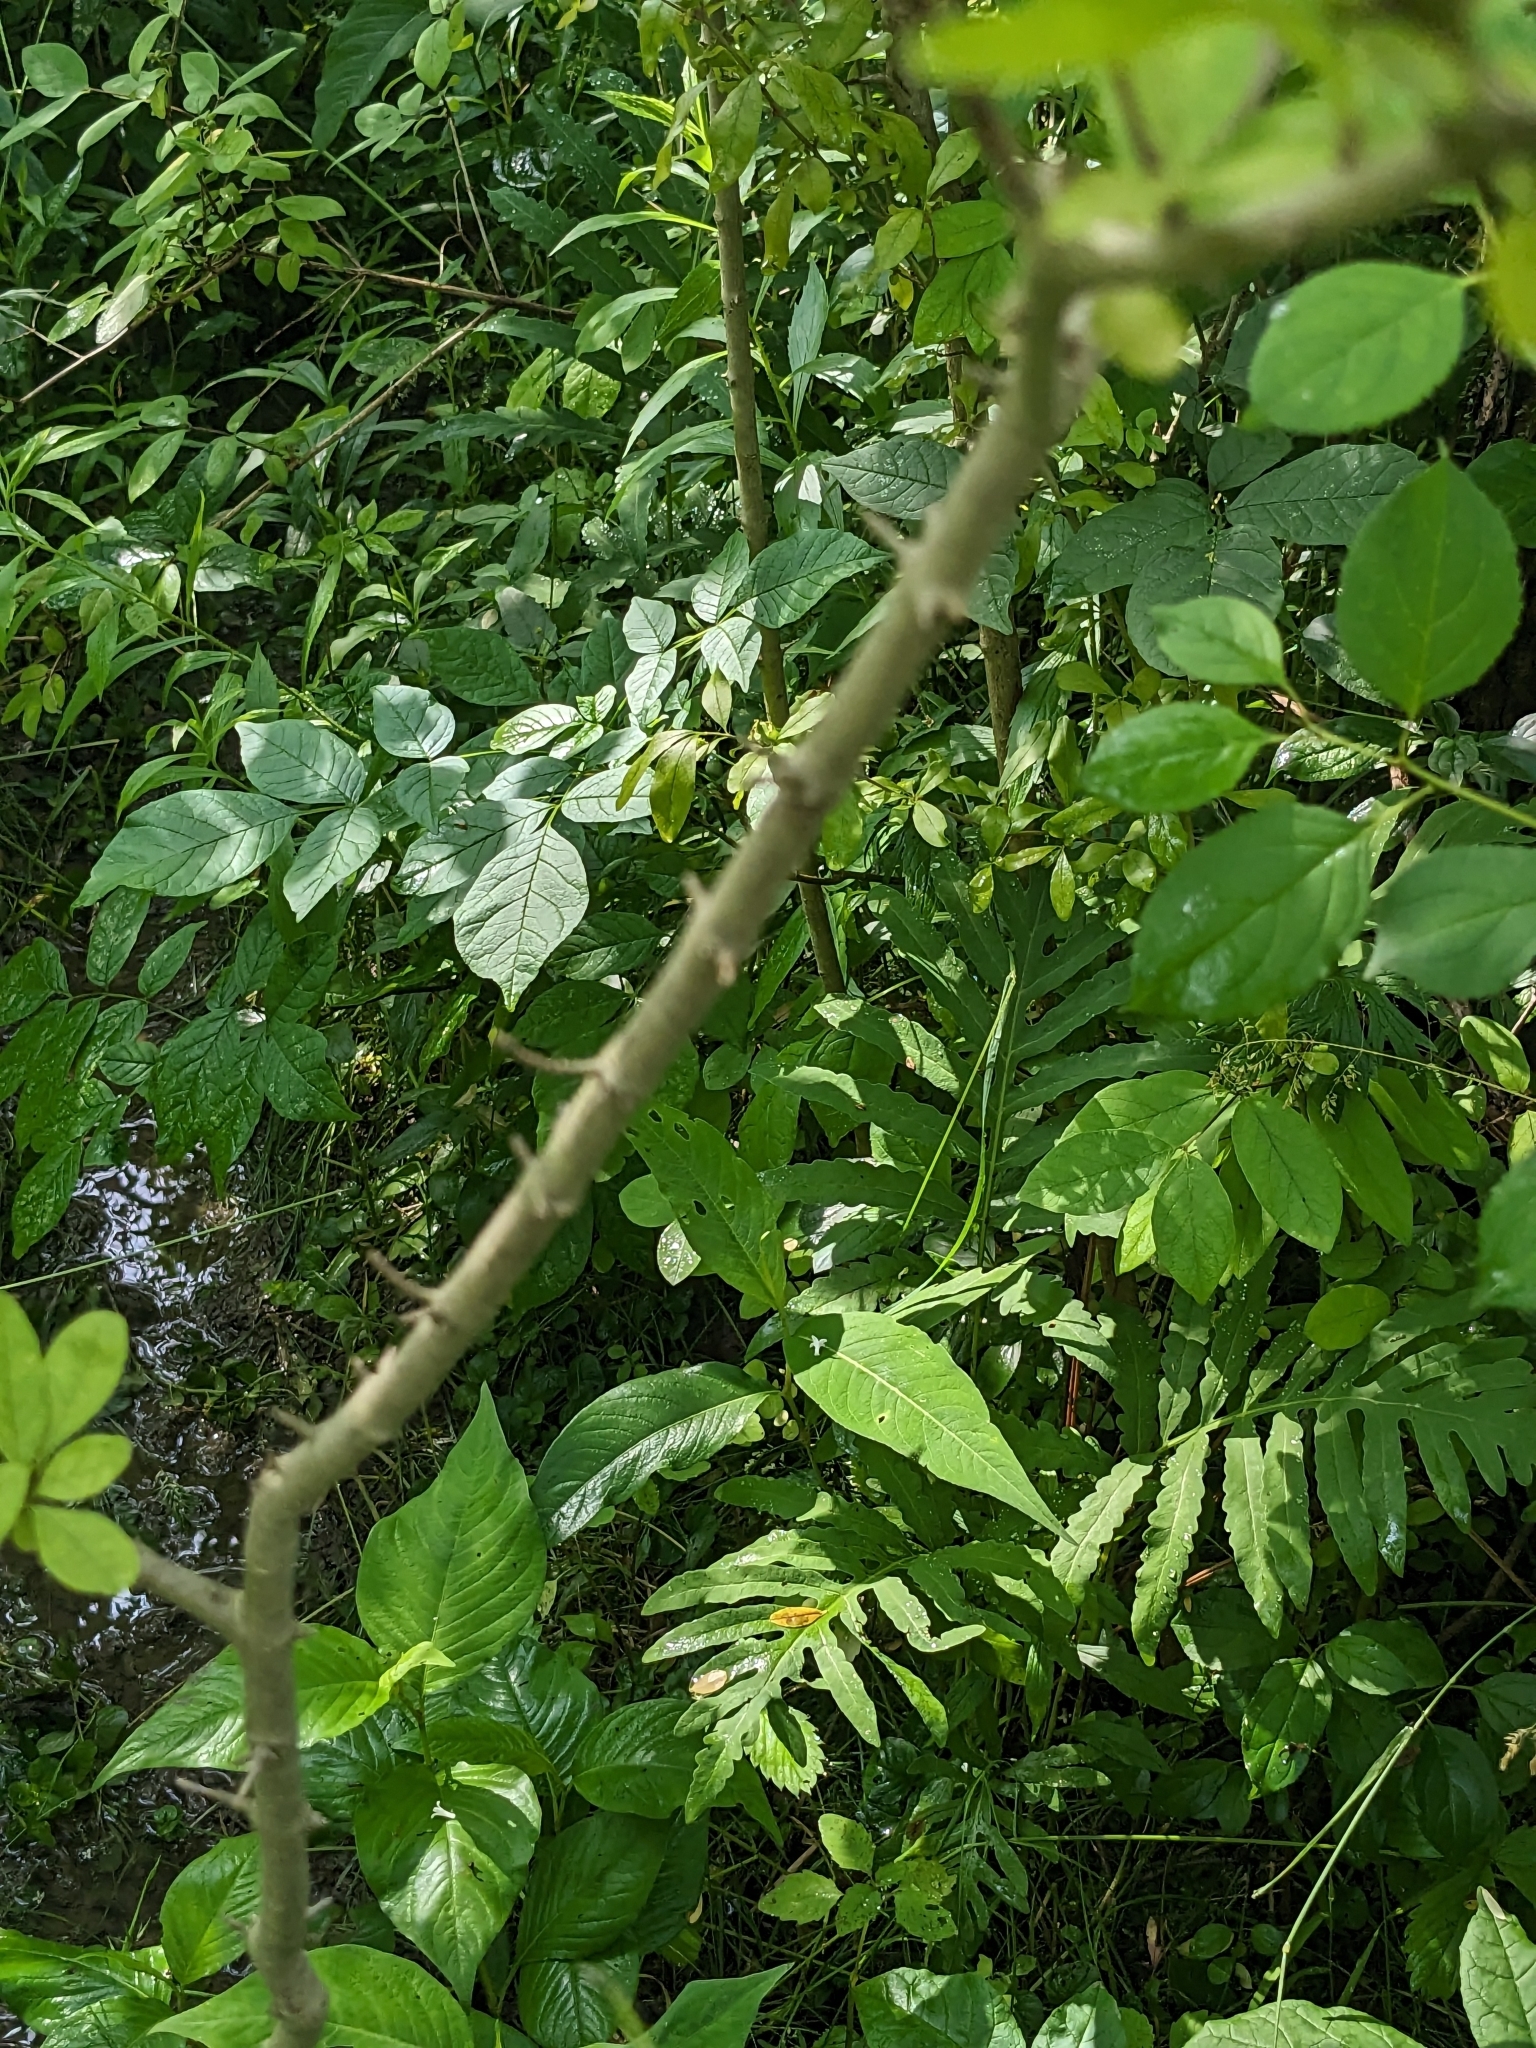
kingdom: Plantae
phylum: Tracheophyta
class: Magnoliopsida
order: Lamiales
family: Oleaceae
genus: Ligustrum
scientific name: Ligustrum obtusifolium
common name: Border privet
